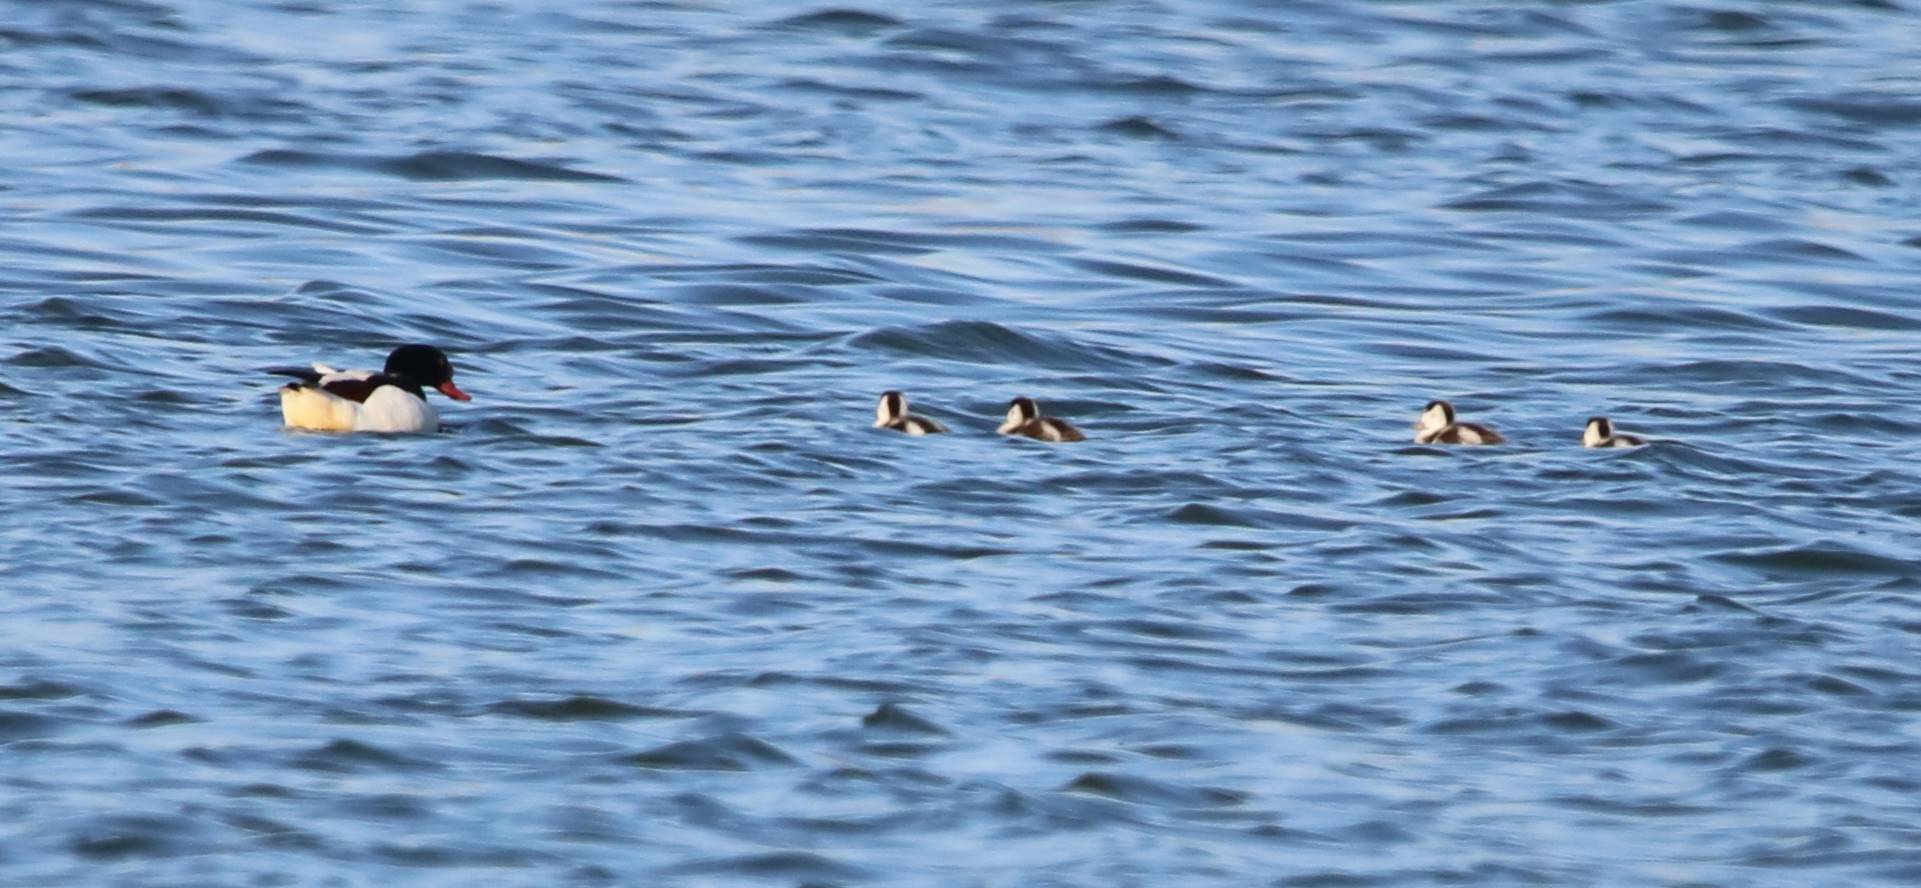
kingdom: Animalia
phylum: Chordata
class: Aves
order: Anseriformes
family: Anatidae
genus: Tadorna
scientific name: Tadorna tadorna
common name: Common shelduck
